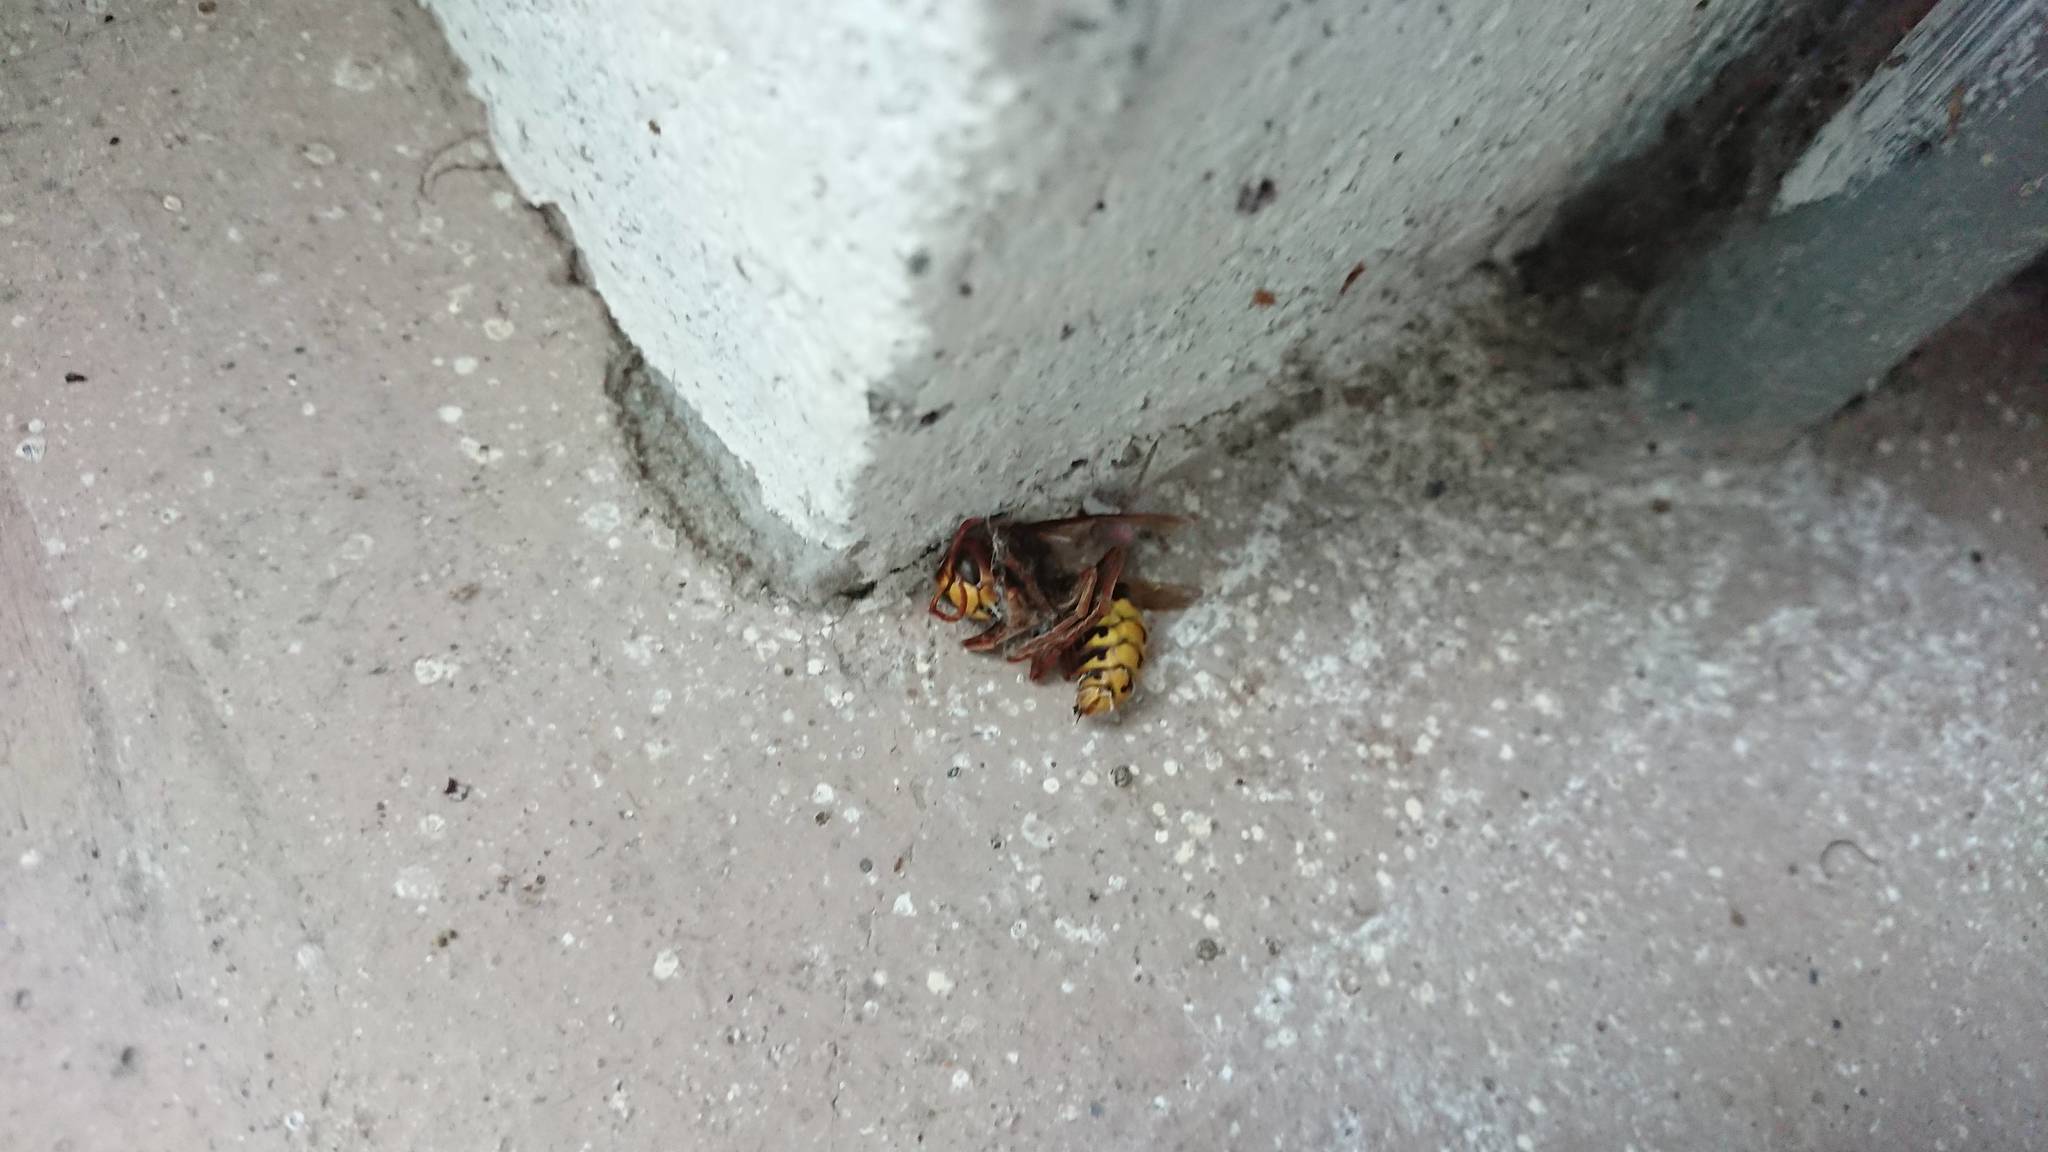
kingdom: Animalia
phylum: Arthropoda
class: Insecta
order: Hymenoptera
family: Vespidae
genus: Vespa
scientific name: Vespa crabro
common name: Hornet
